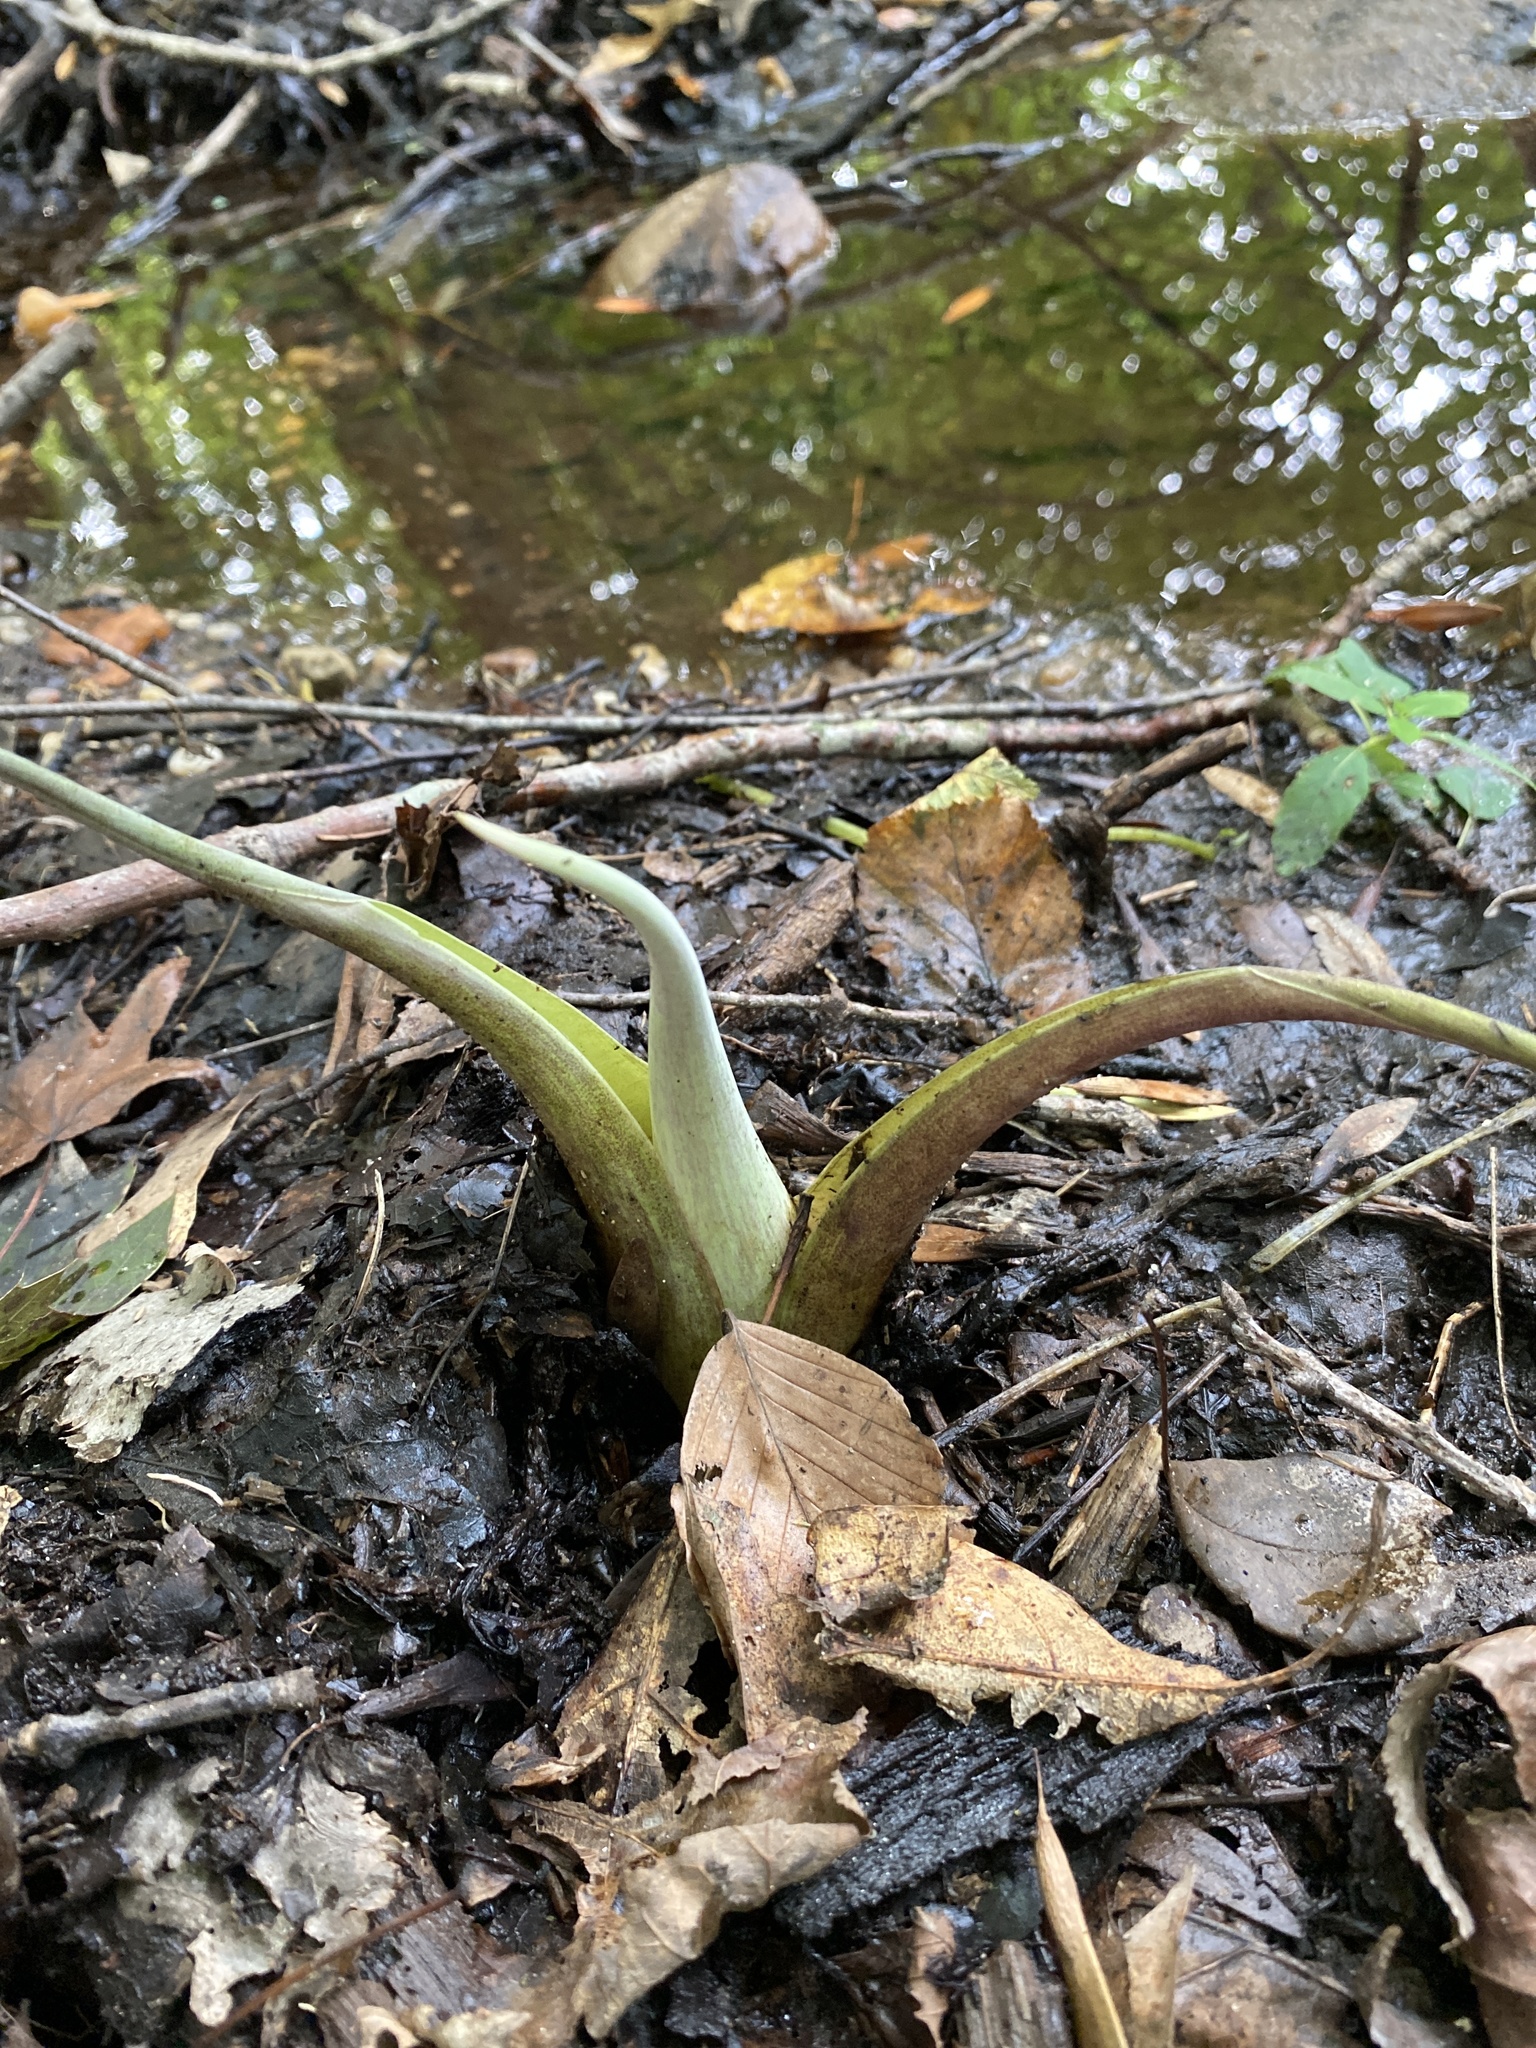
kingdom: Plantae
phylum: Tracheophyta
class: Liliopsida
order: Alismatales
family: Araceae
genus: Symplocarpus
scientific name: Symplocarpus foetidus
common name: Eastern skunk cabbage
